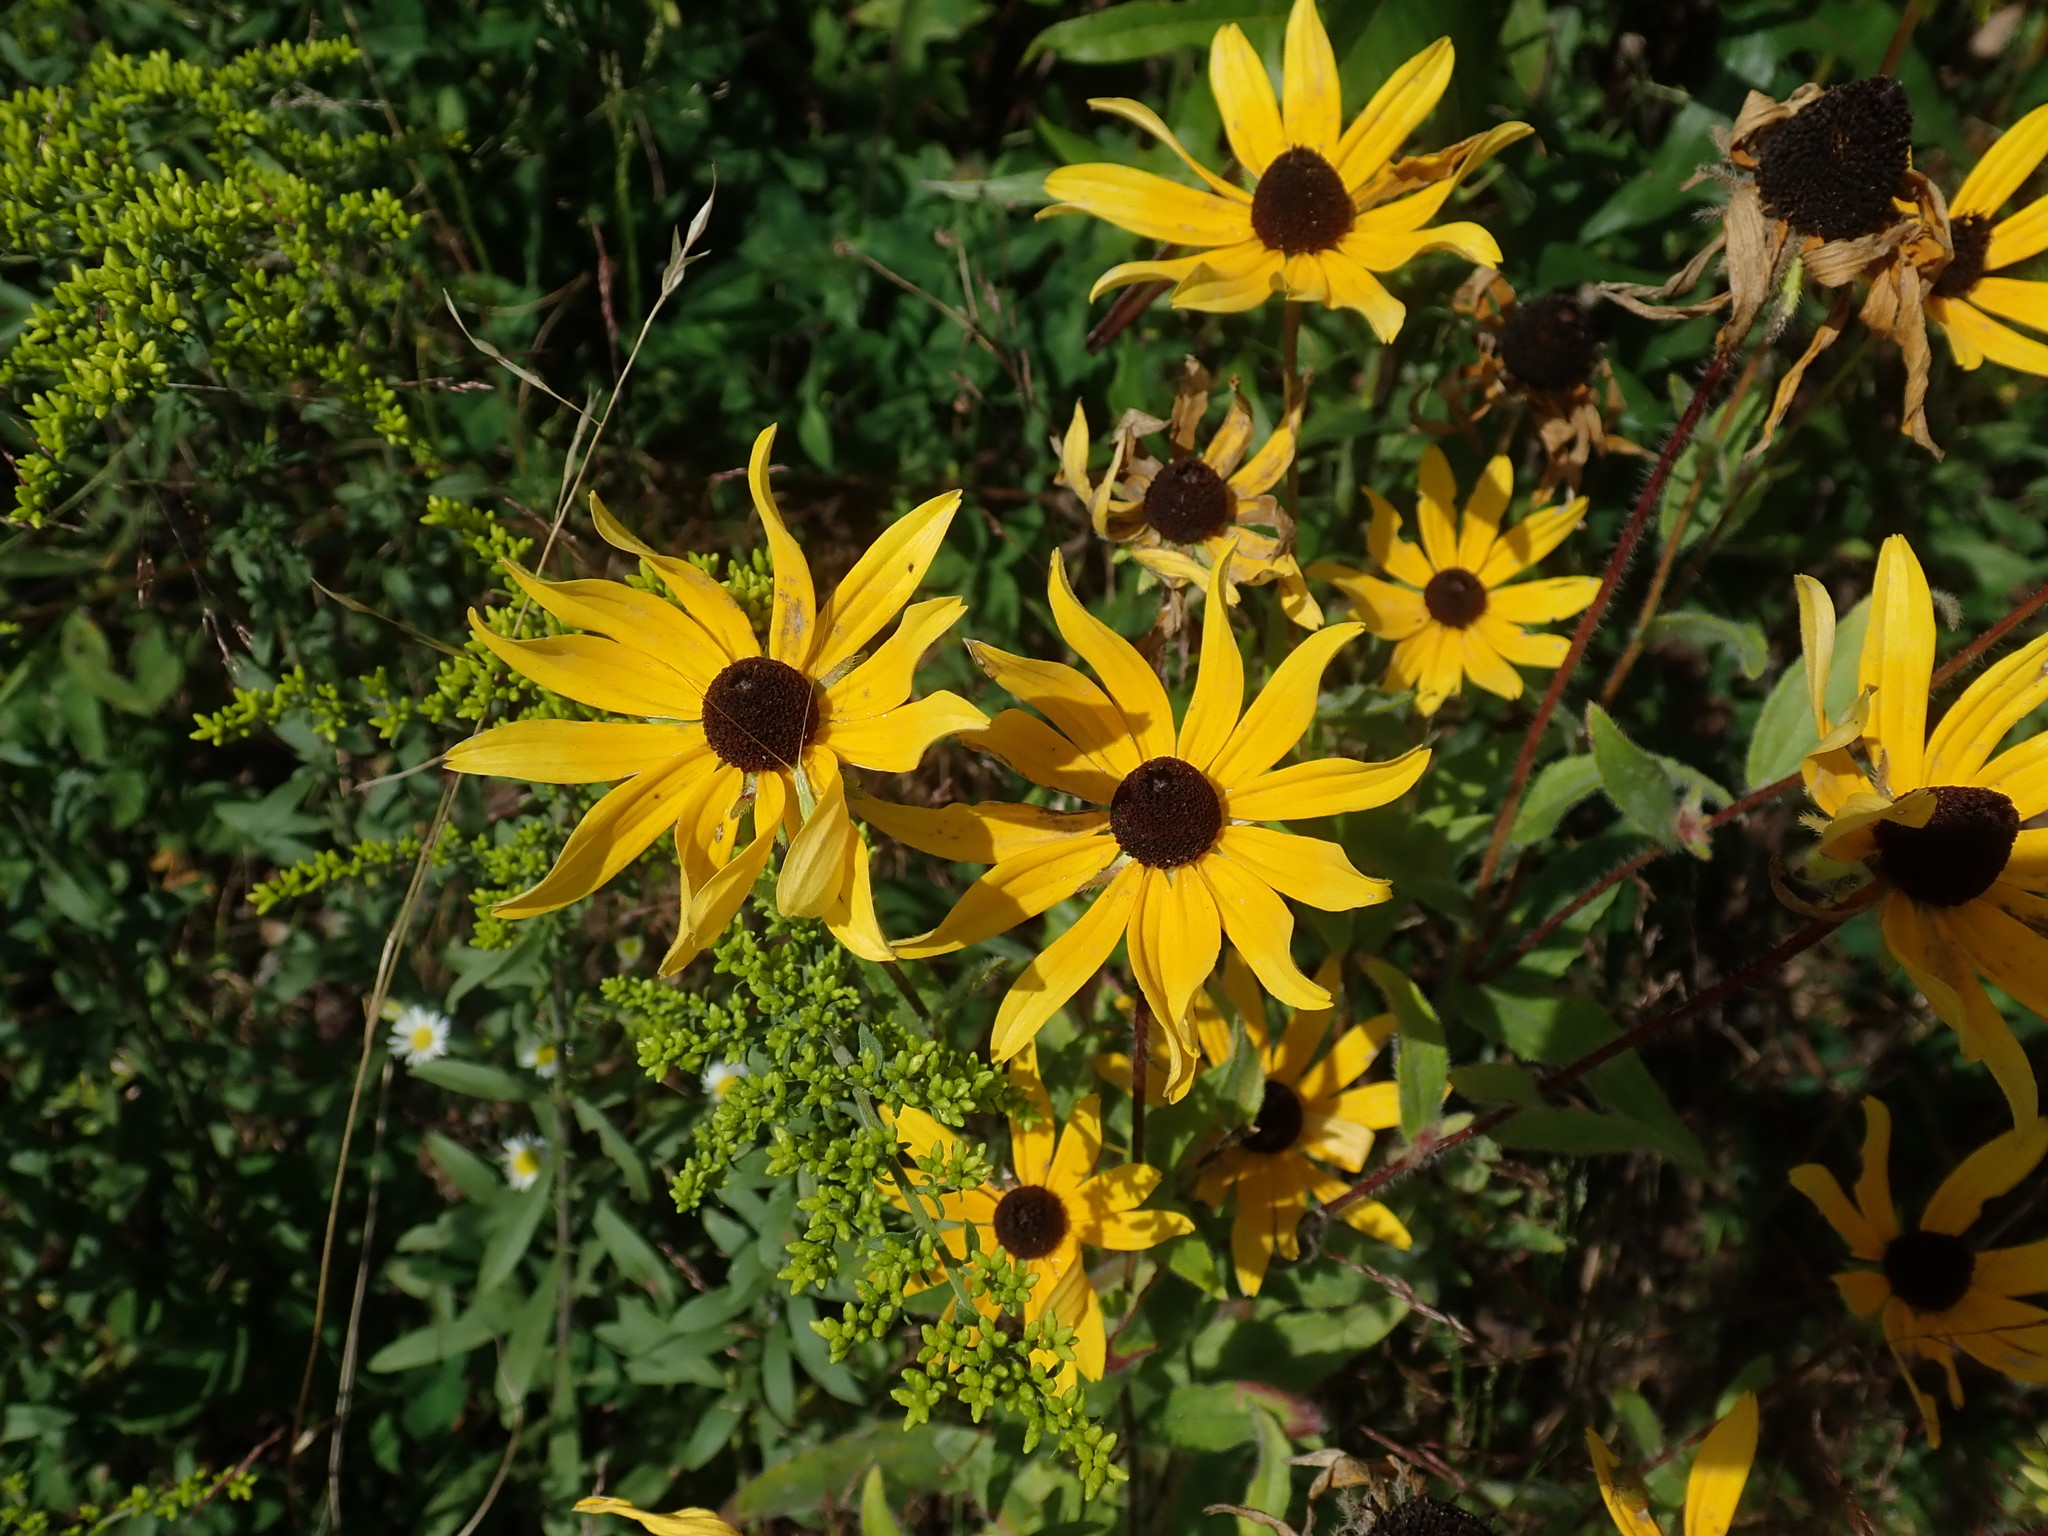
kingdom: Plantae
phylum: Tracheophyta
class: Magnoliopsida
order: Asterales
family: Asteraceae
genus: Rudbeckia
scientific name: Rudbeckia hirta
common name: Black-eyed-susan
